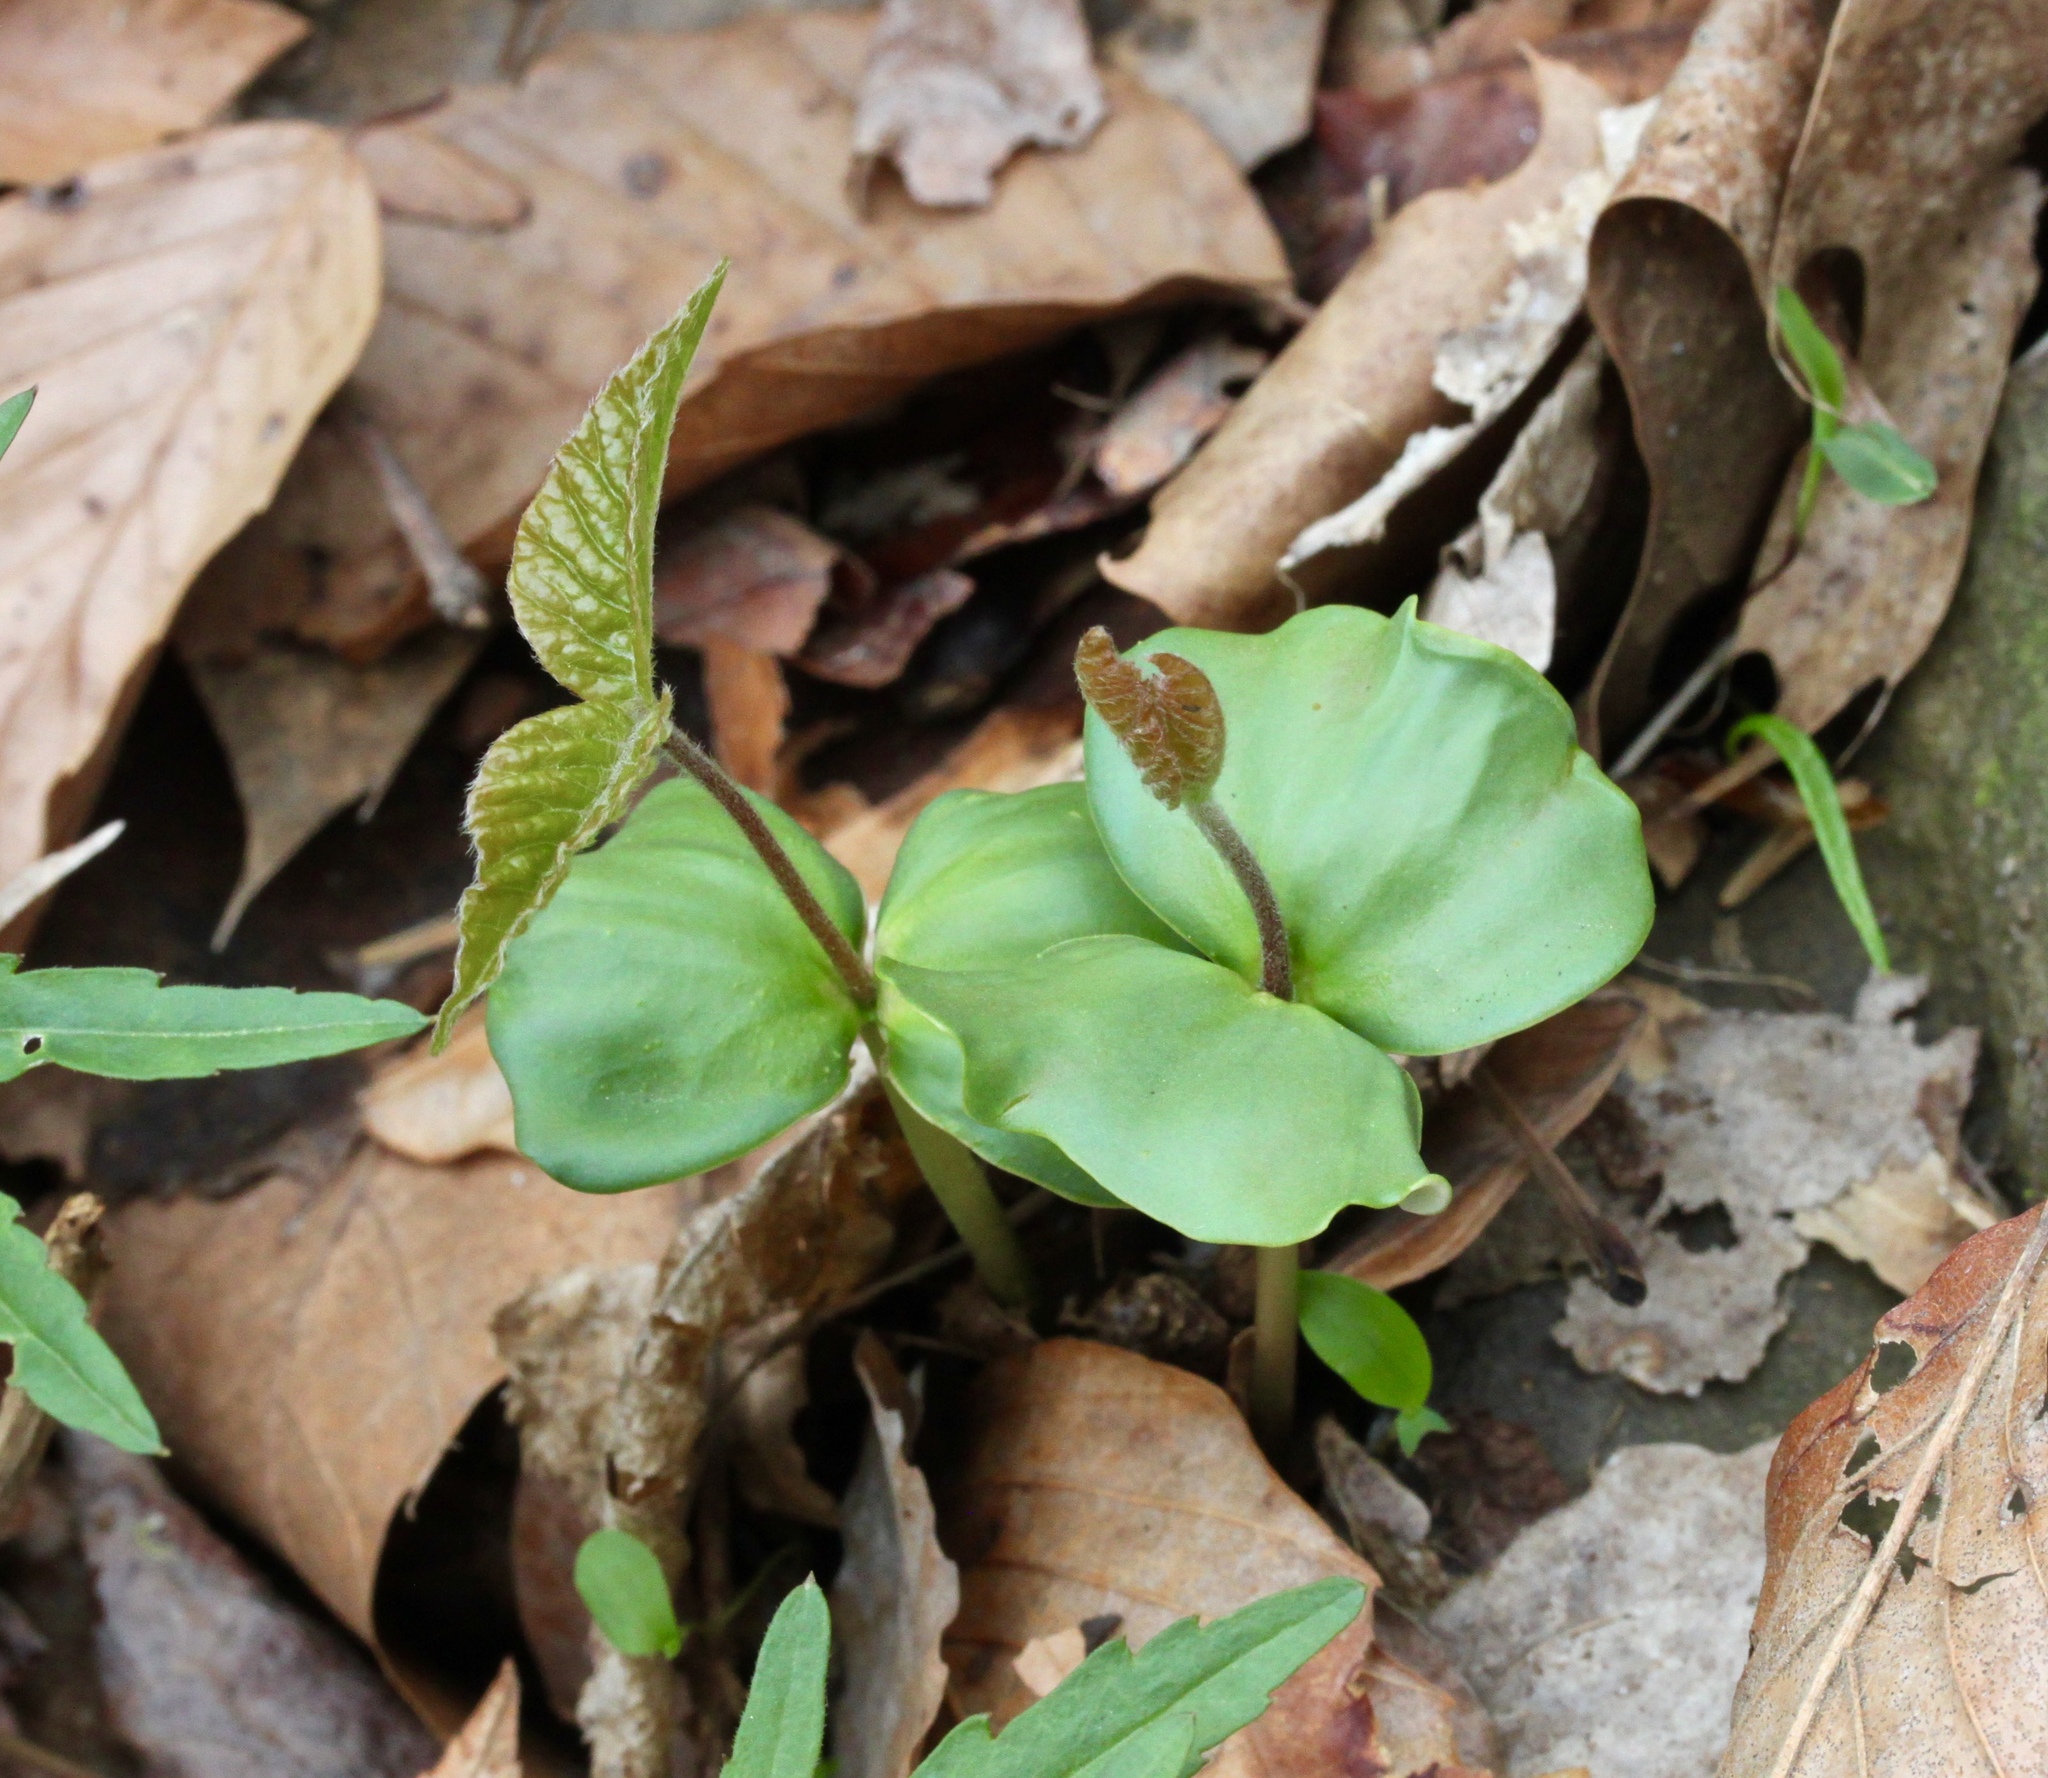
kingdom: Plantae
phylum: Tracheophyta
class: Magnoliopsida
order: Fagales
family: Fagaceae
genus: Fagus
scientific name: Fagus grandifolia
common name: American beech
